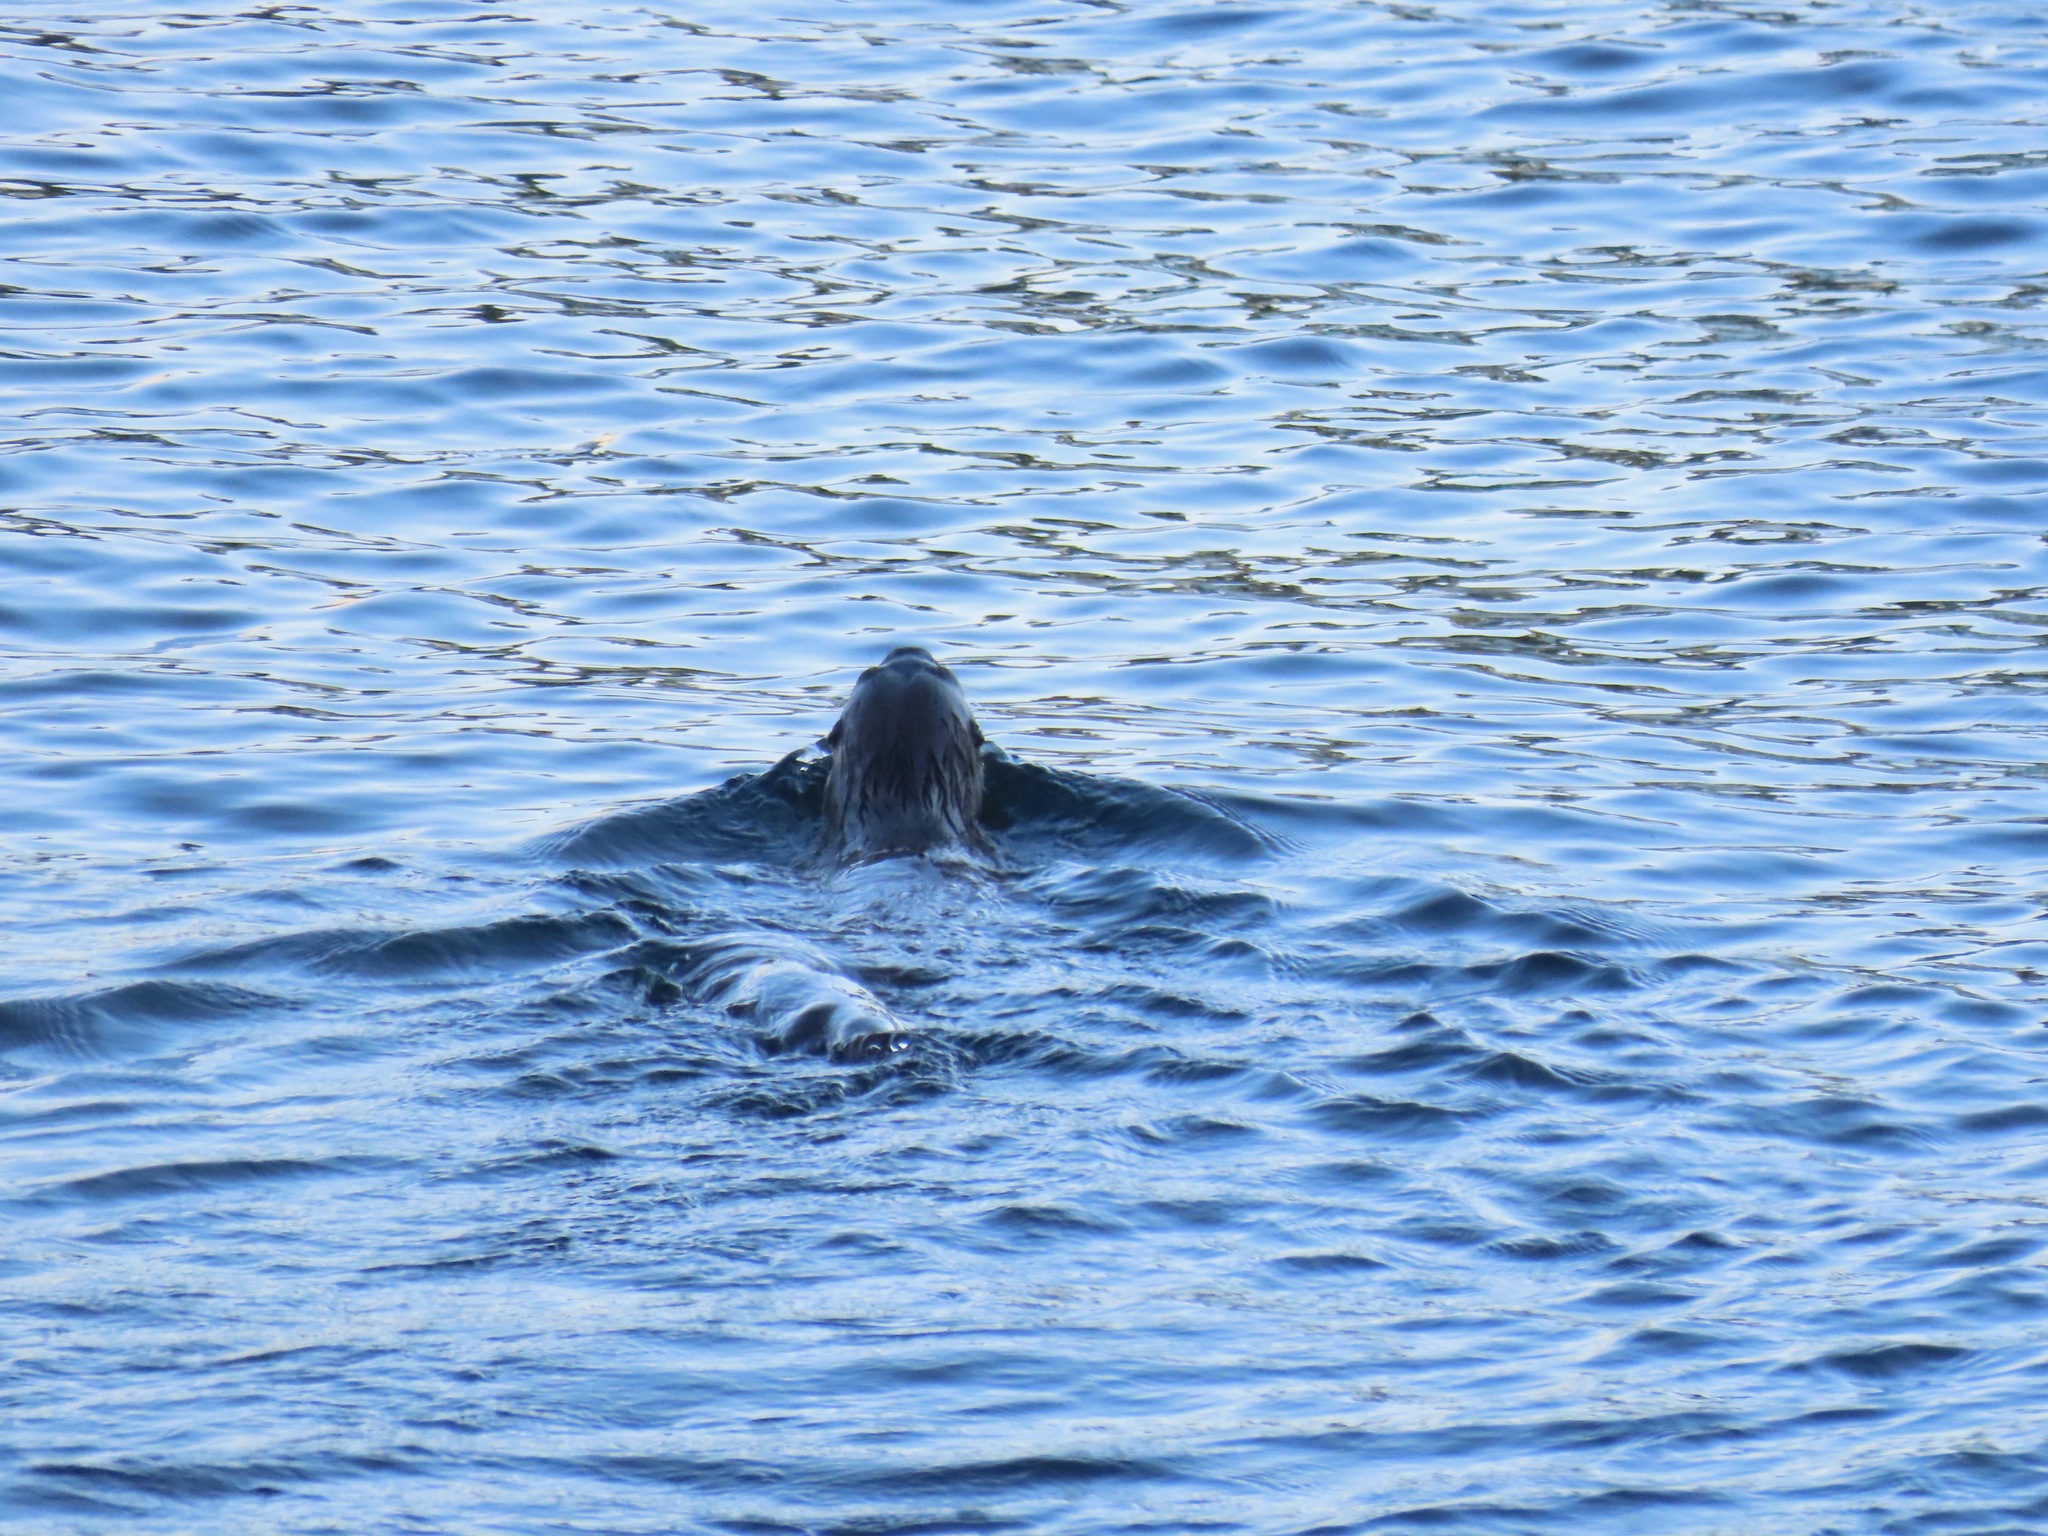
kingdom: Animalia
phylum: Chordata
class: Mammalia
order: Carnivora
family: Mustelidae
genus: Lontra
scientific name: Lontra canadensis
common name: North american river otter
